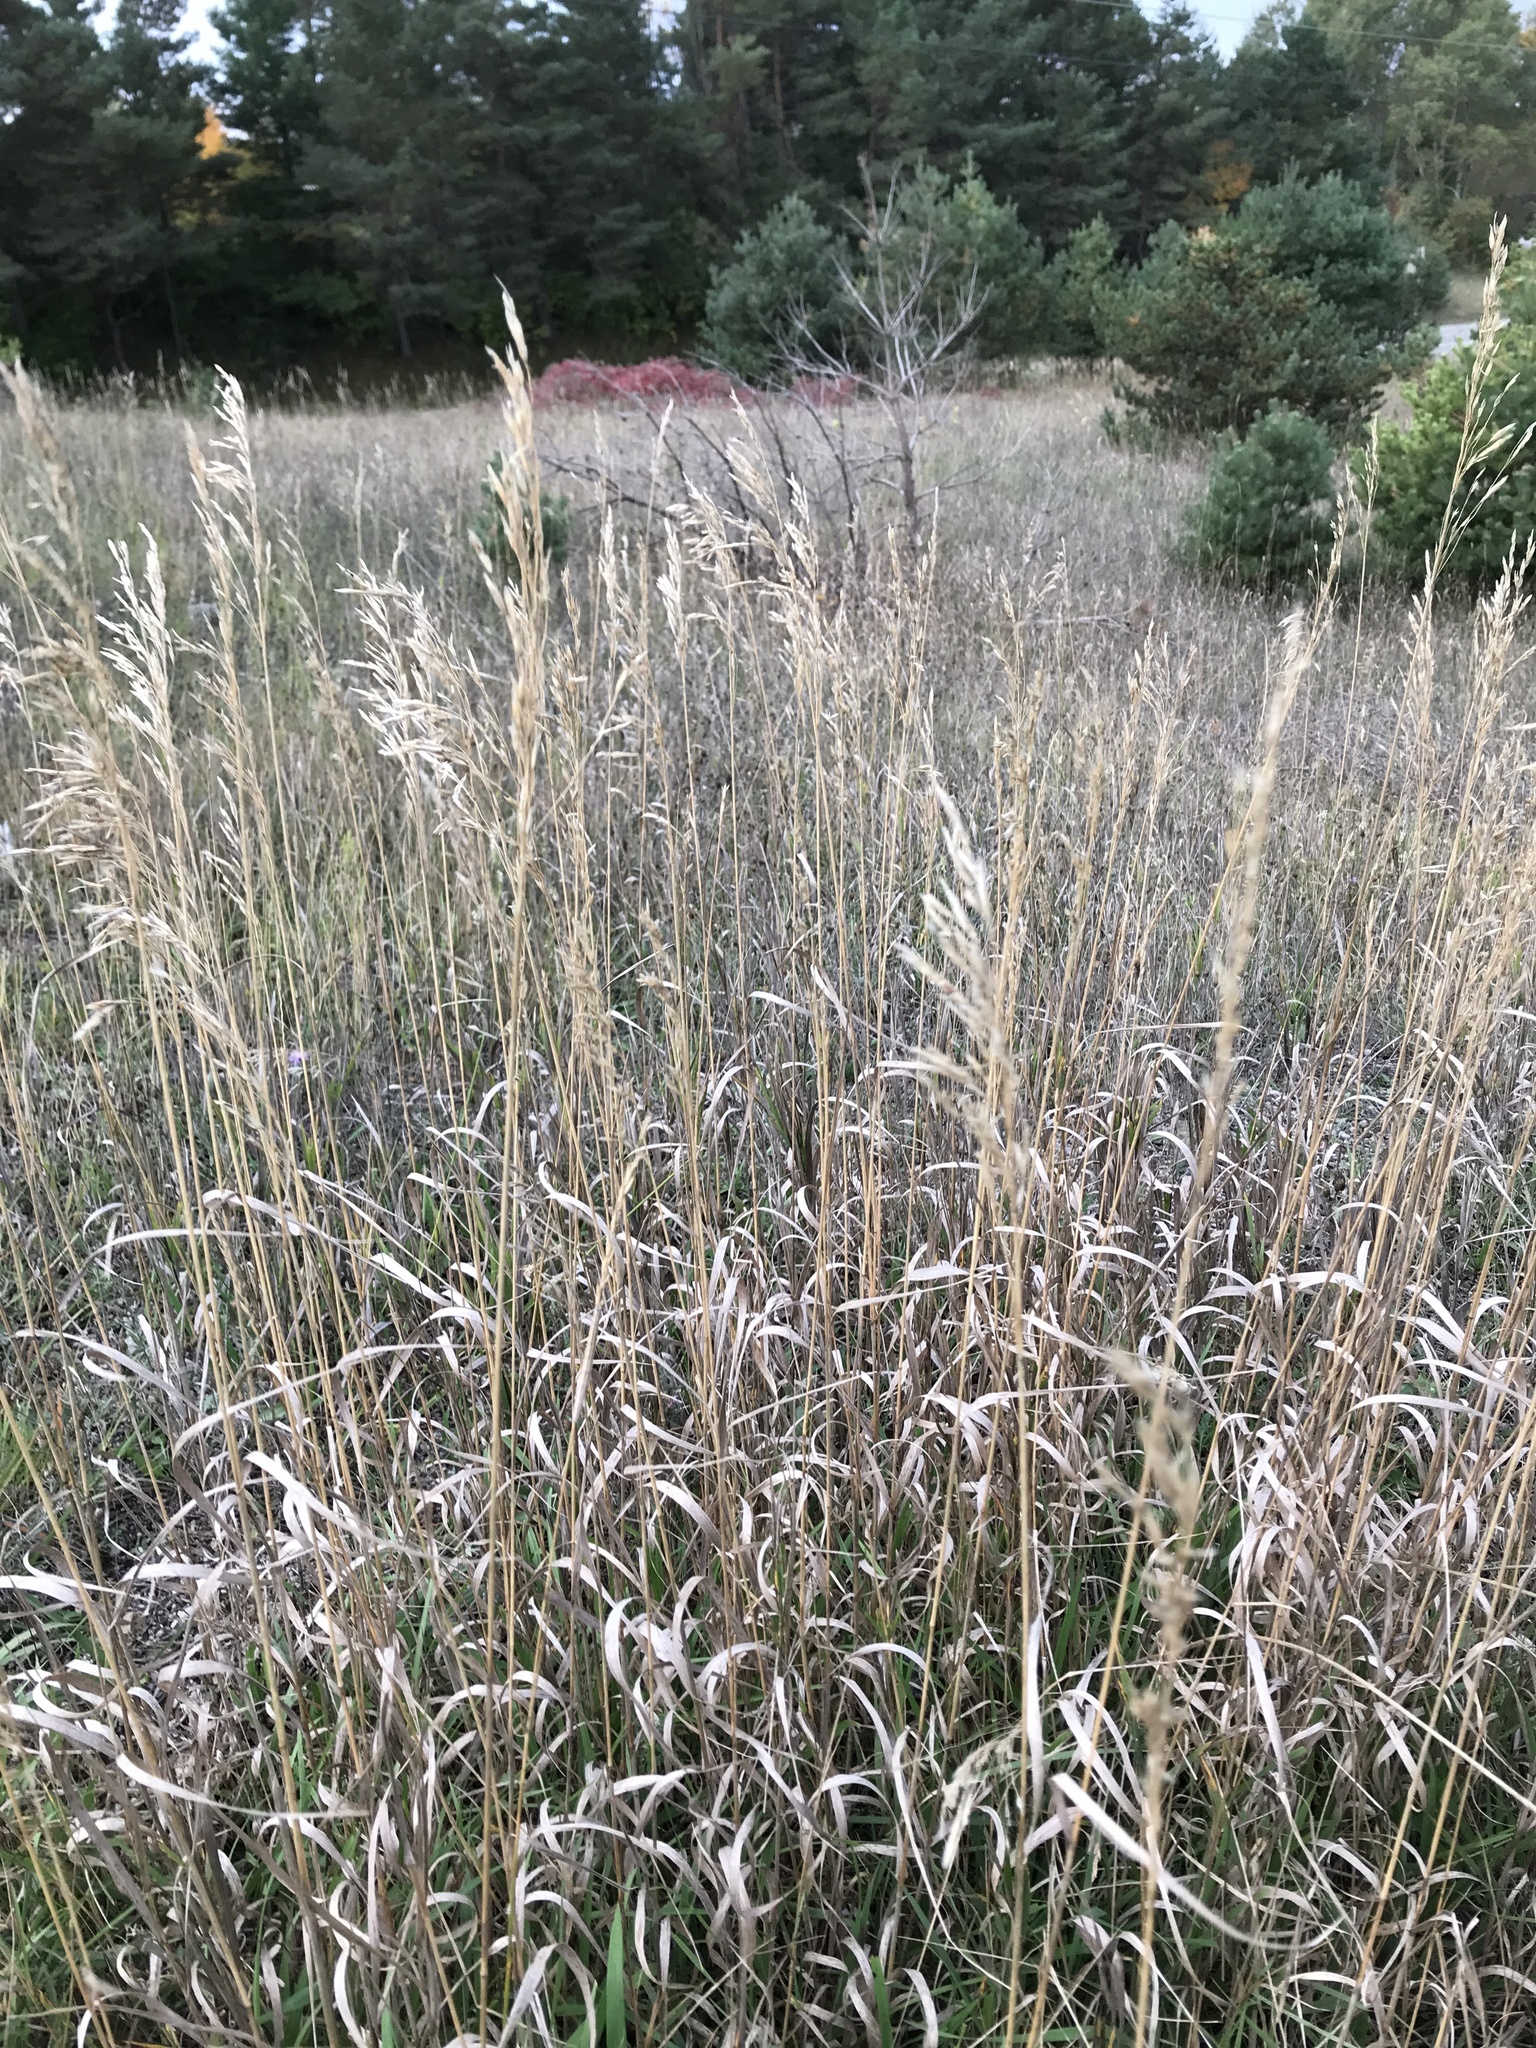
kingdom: Plantae
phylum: Tracheophyta
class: Liliopsida
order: Poales
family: Poaceae
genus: Bromus
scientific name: Bromus inermis
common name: Smooth brome
